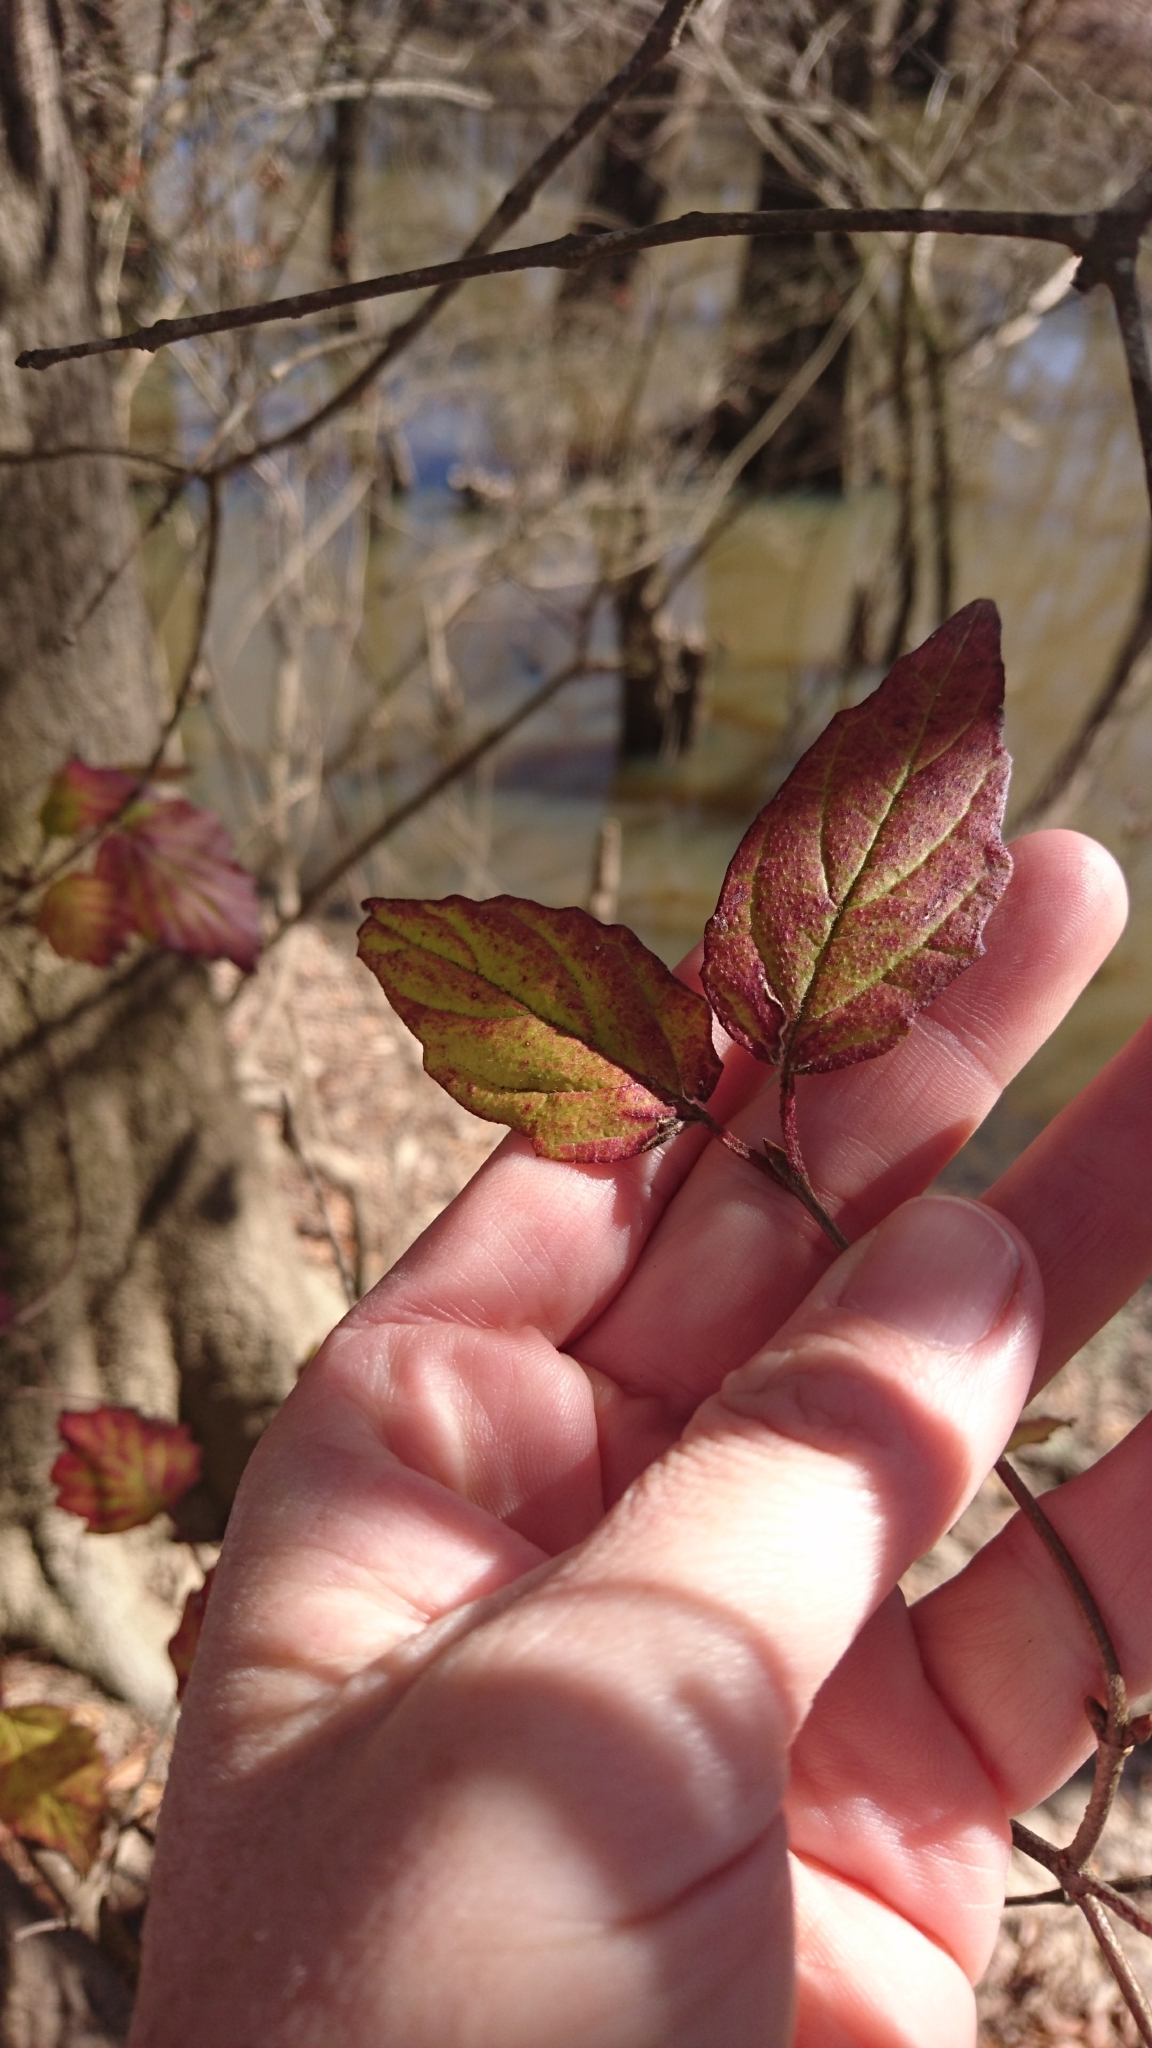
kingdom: Plantae
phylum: Tracheophyta
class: Magnoliopsida
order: Dipsacales
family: Viburnaceae
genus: Viburnum
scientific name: Viburnum scabrellum
